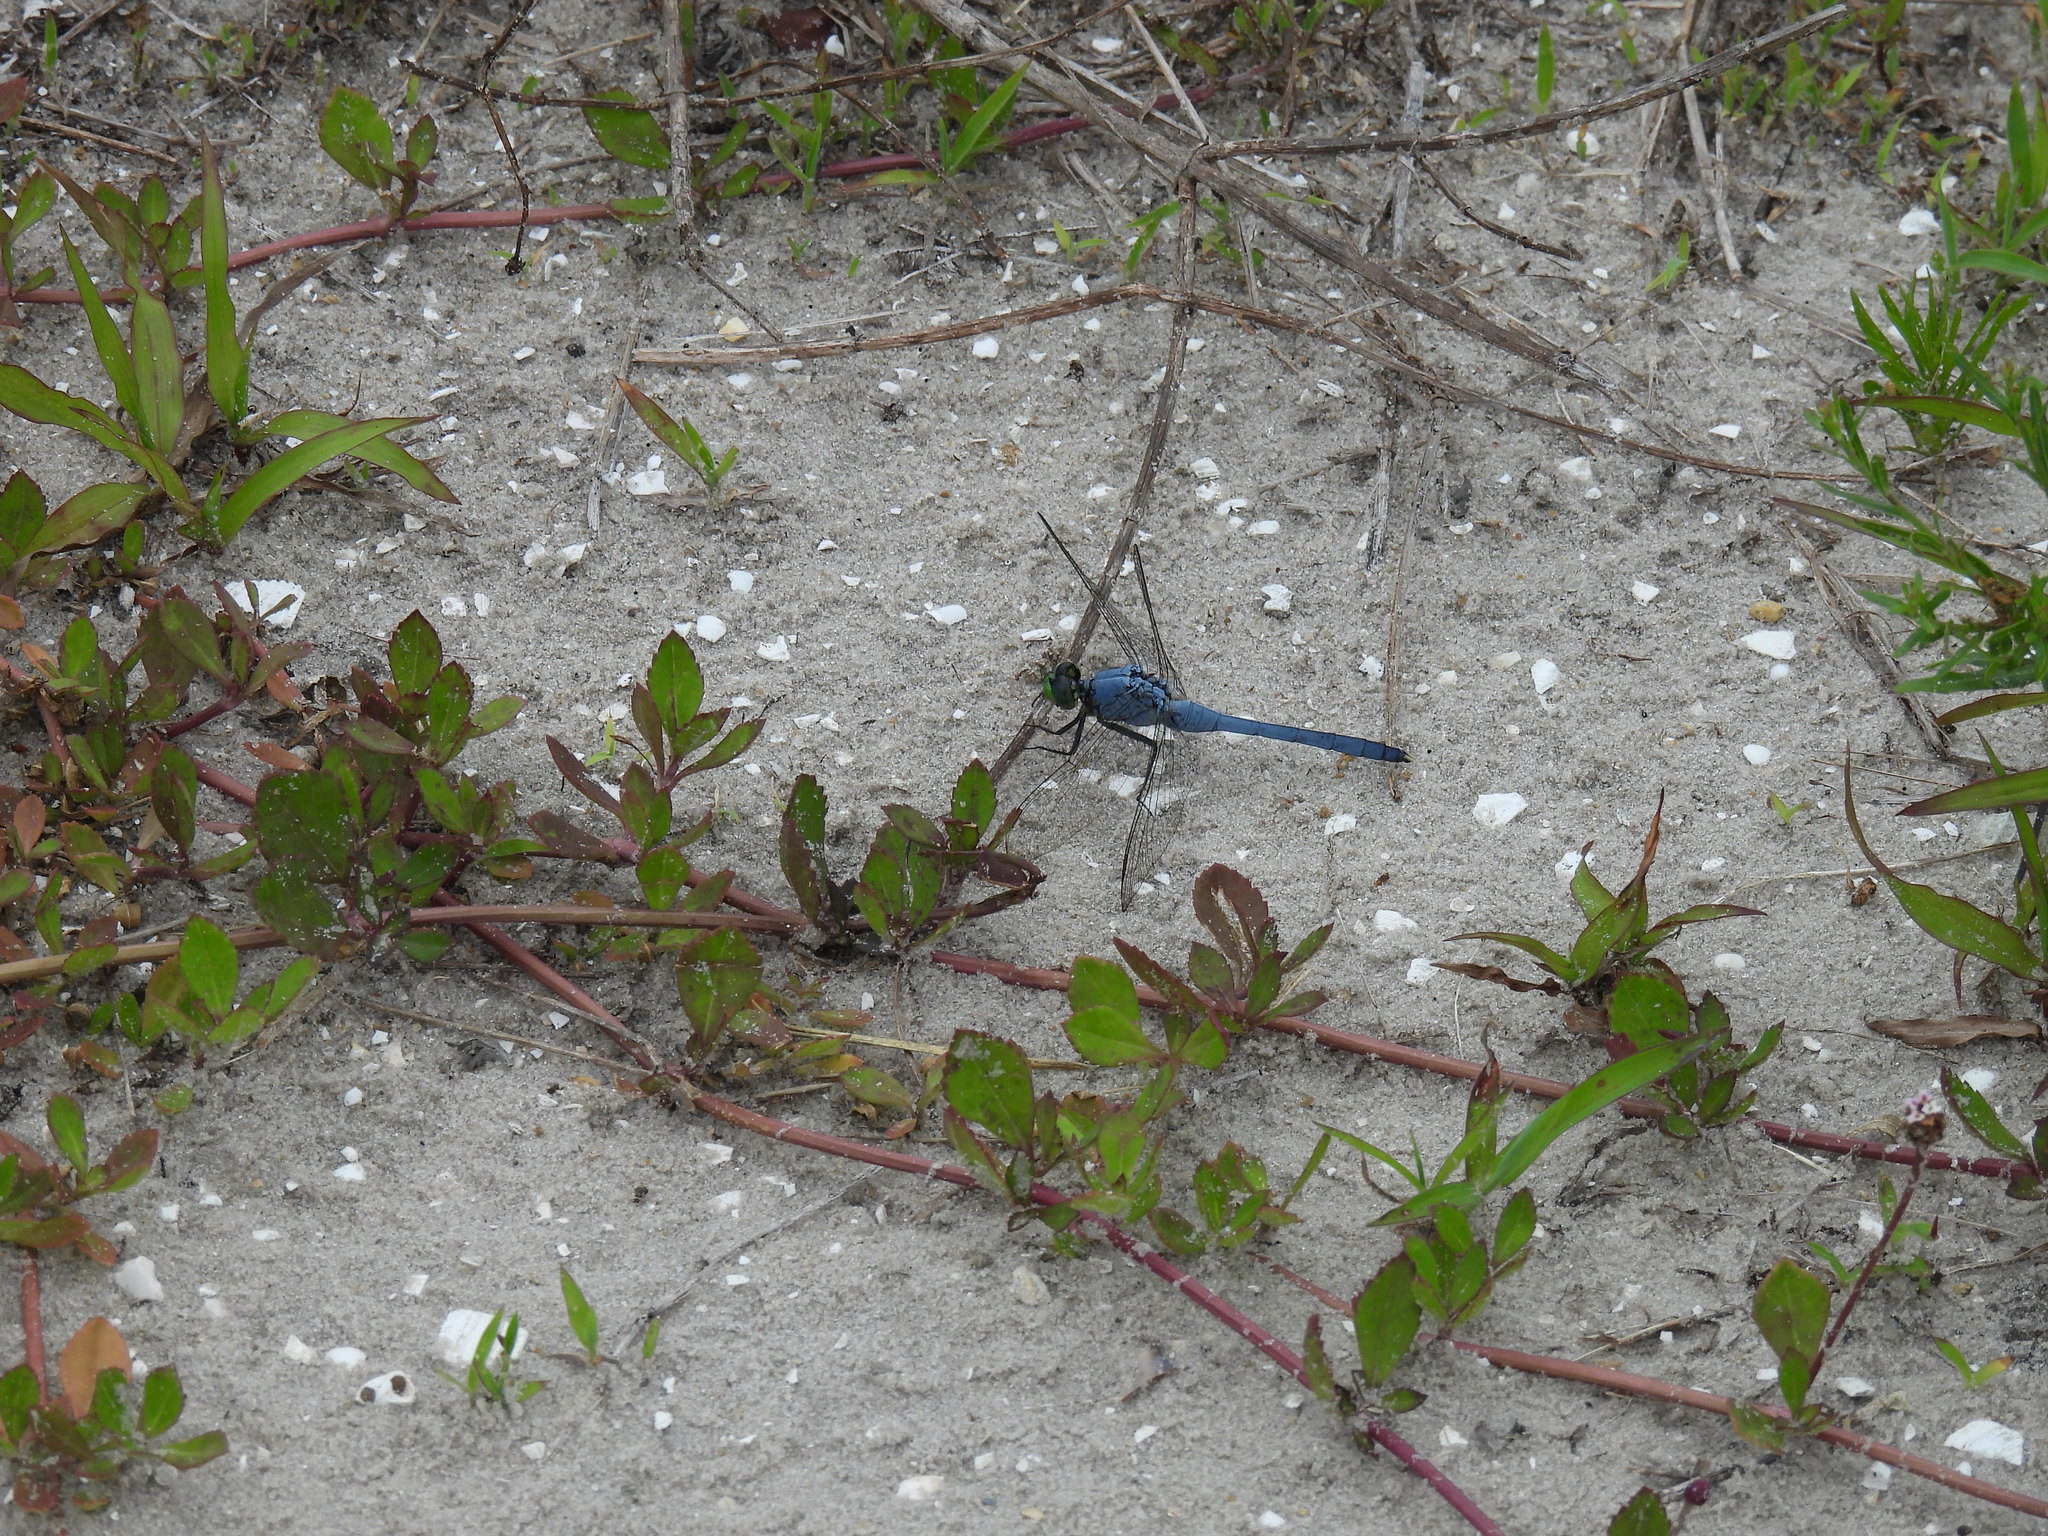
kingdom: Animalia
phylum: Arthropoda
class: Insecta
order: Odonata
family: Libellulidae
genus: Erythemis
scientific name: Erythemis simplicicollis
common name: Eastern pondhawk
